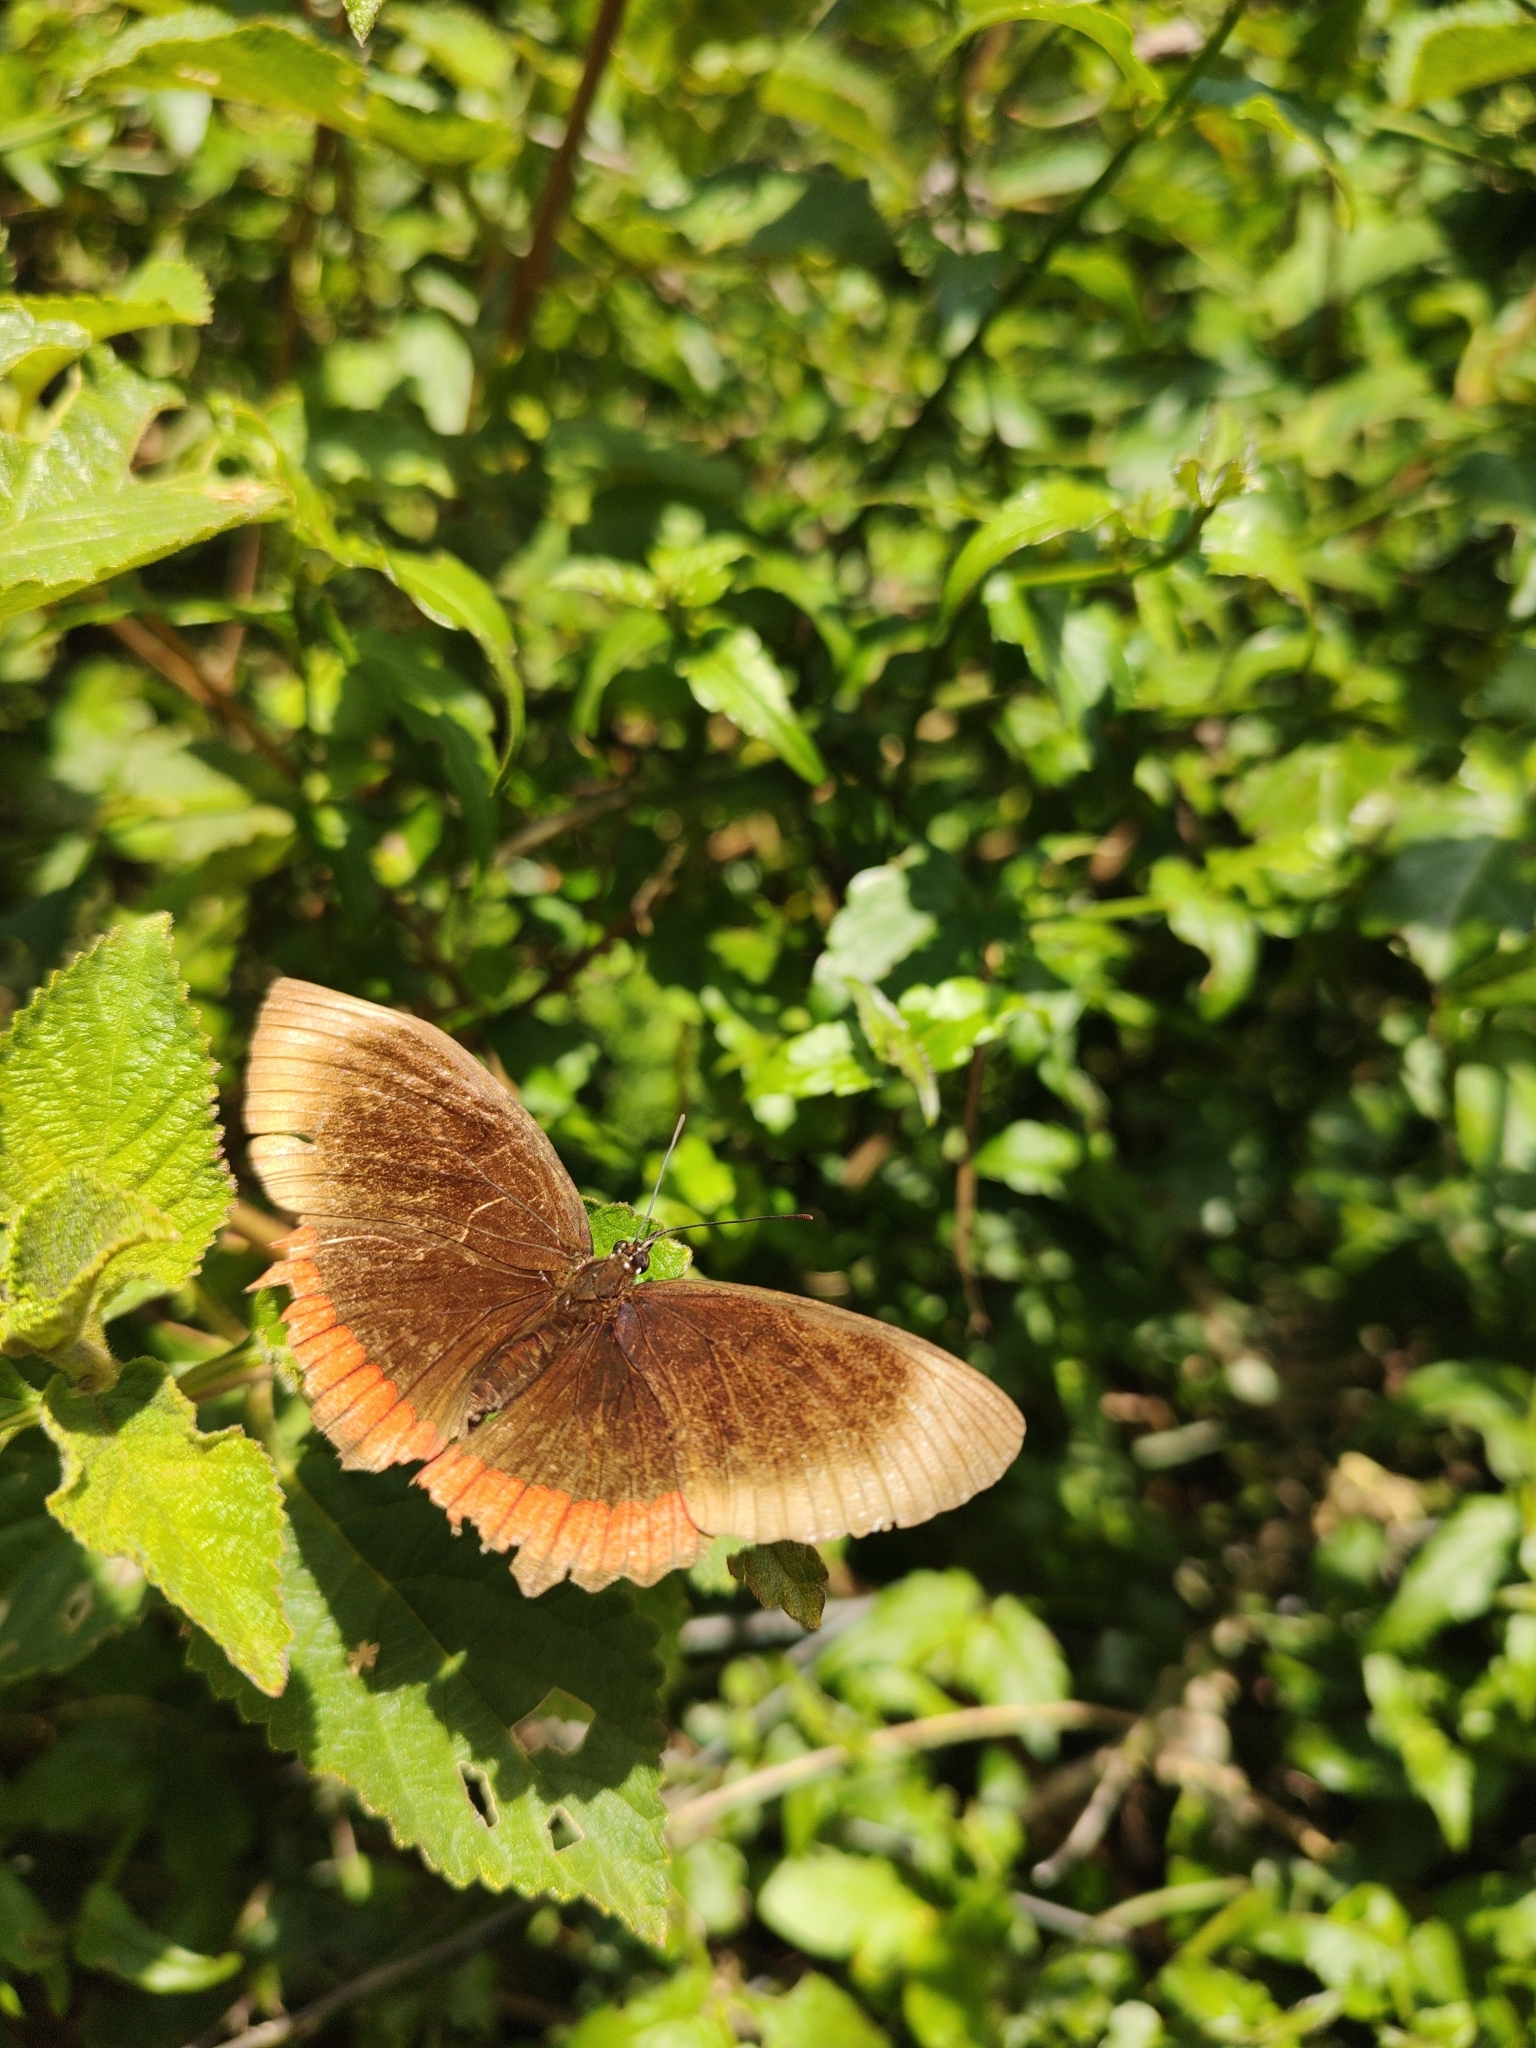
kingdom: Animalia
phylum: Arthropoda
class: Insecta
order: Lepidoptera
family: Sesiidae
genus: Sesia
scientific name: Sesia Biblis hyperia
